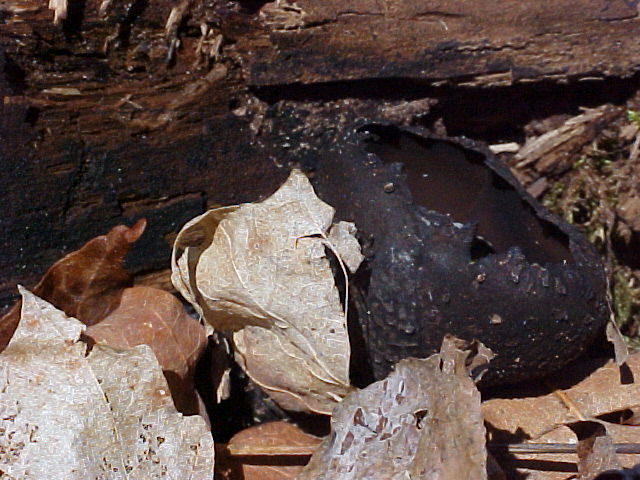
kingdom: Fungi
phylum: Ascomycota
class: Pezizomycetes
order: Pezizales
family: Sarcosomataceae
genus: Urnula
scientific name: Urnula craterium
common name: Devil's urn
